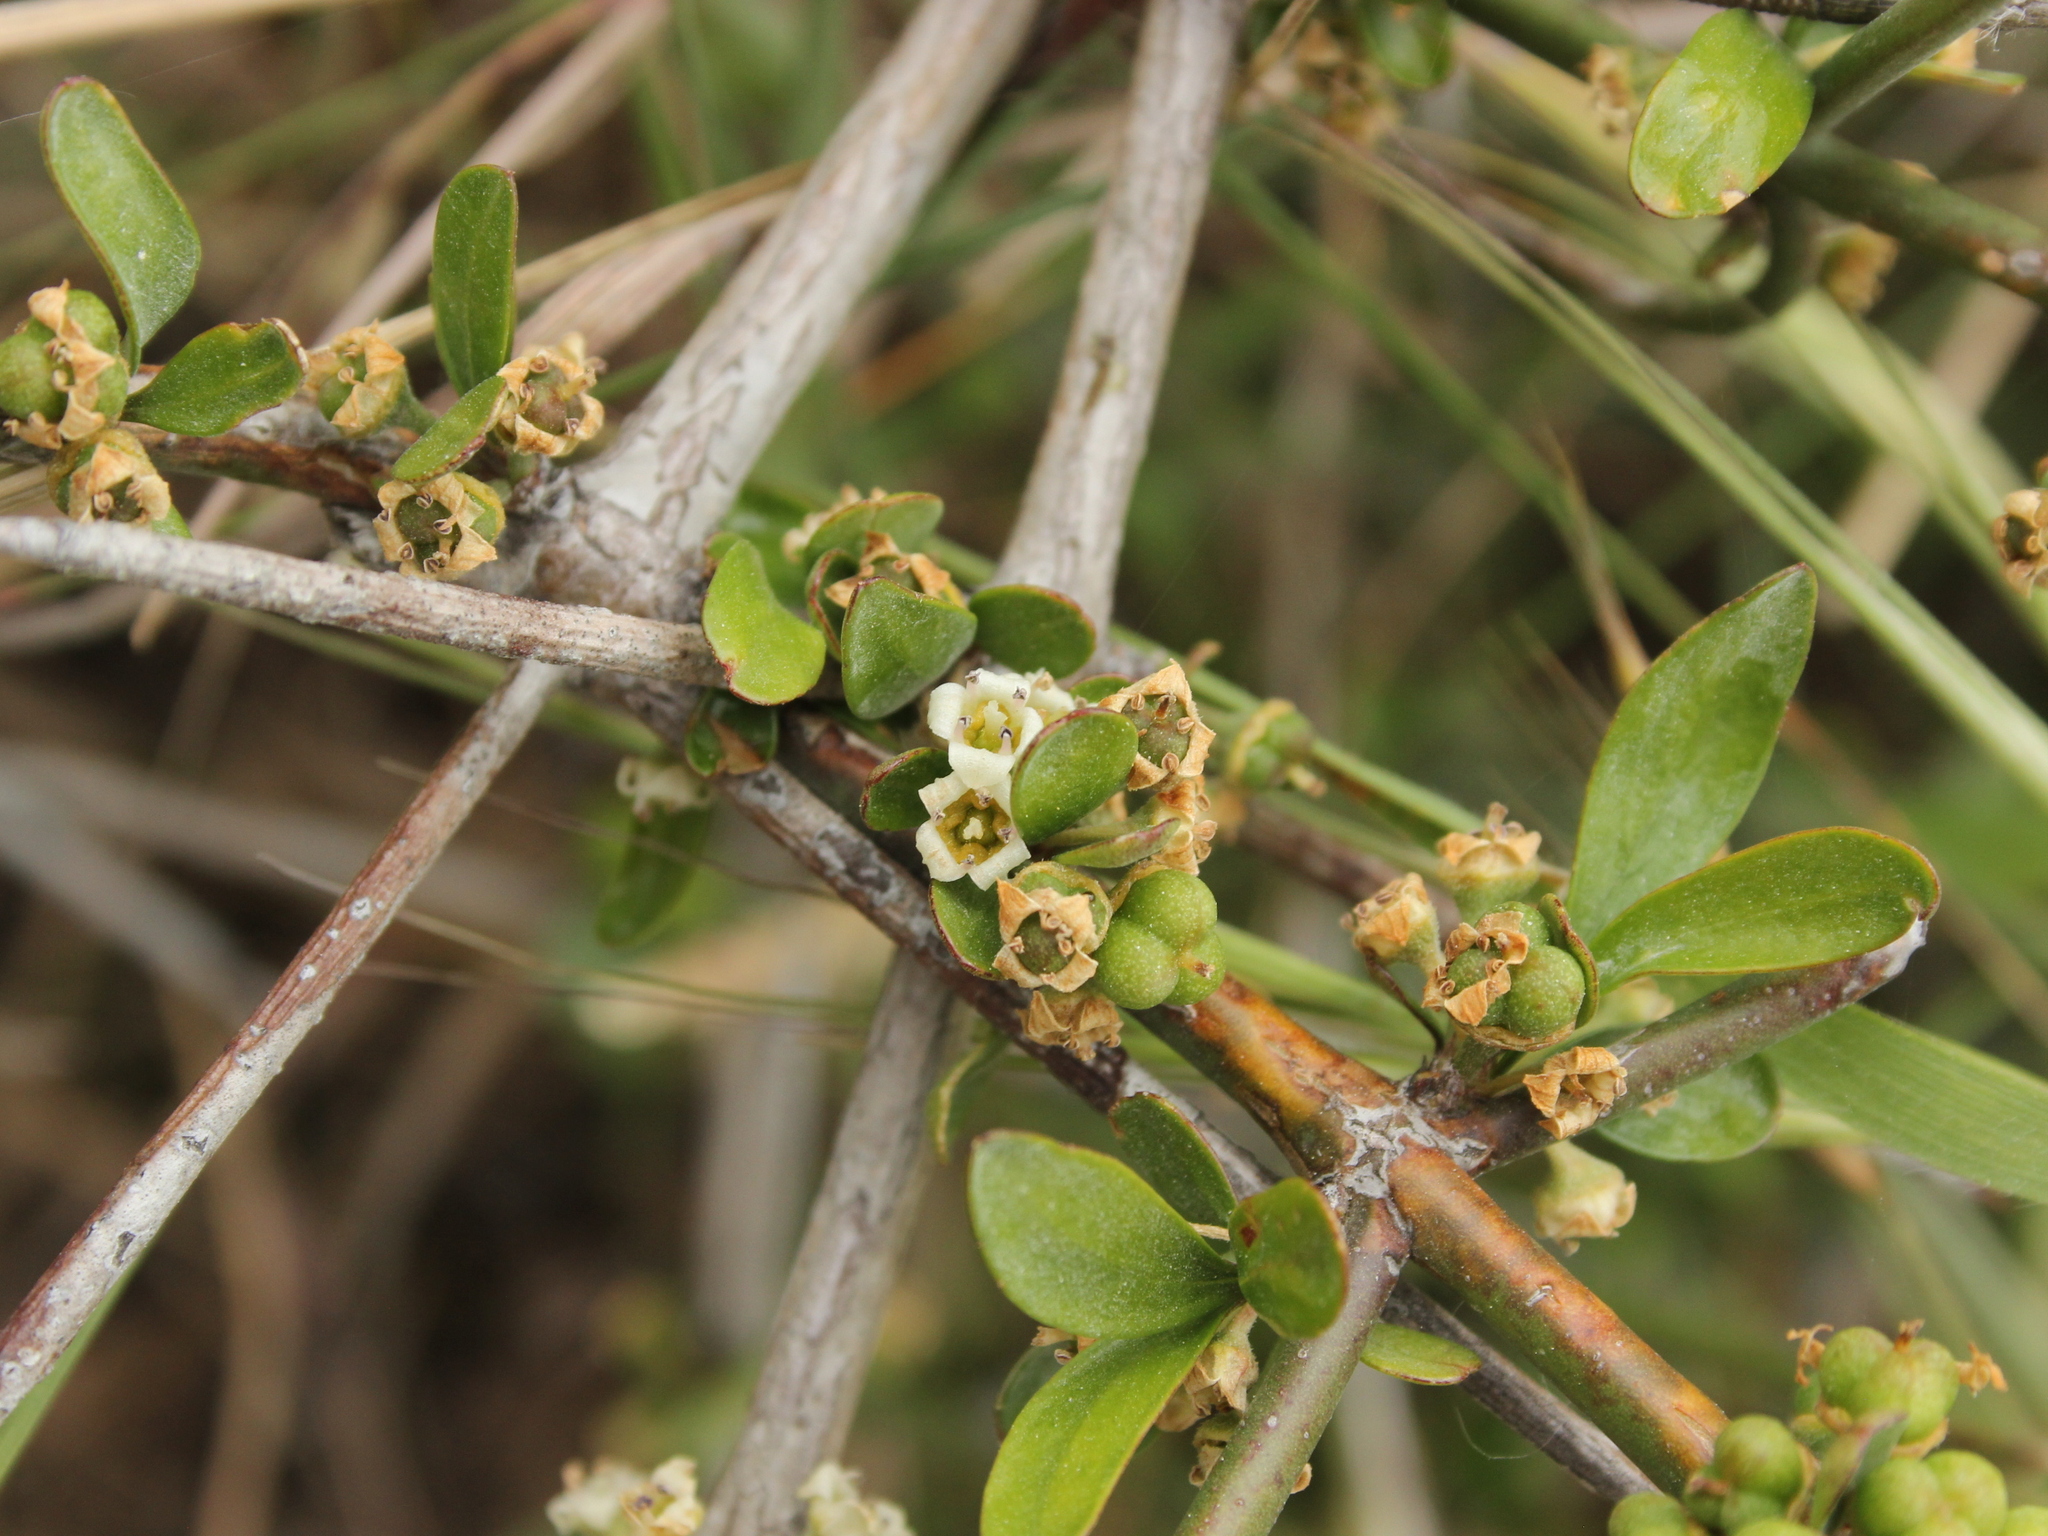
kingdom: Plantae
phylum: Tracheophyta
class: Magnoliopsida
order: Rosales
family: Rhamnaceae
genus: Discaria
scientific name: Discaria toumatou
